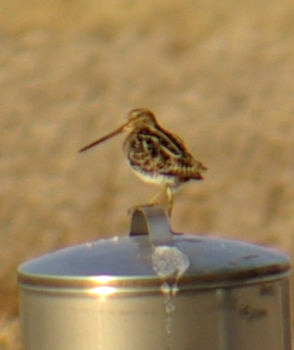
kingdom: Animalia
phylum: Chordata
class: Aves
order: Charadriiformes
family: Scolopacidae
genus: Gallinago
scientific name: Gallinago delicata
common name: Wilson's snipe
